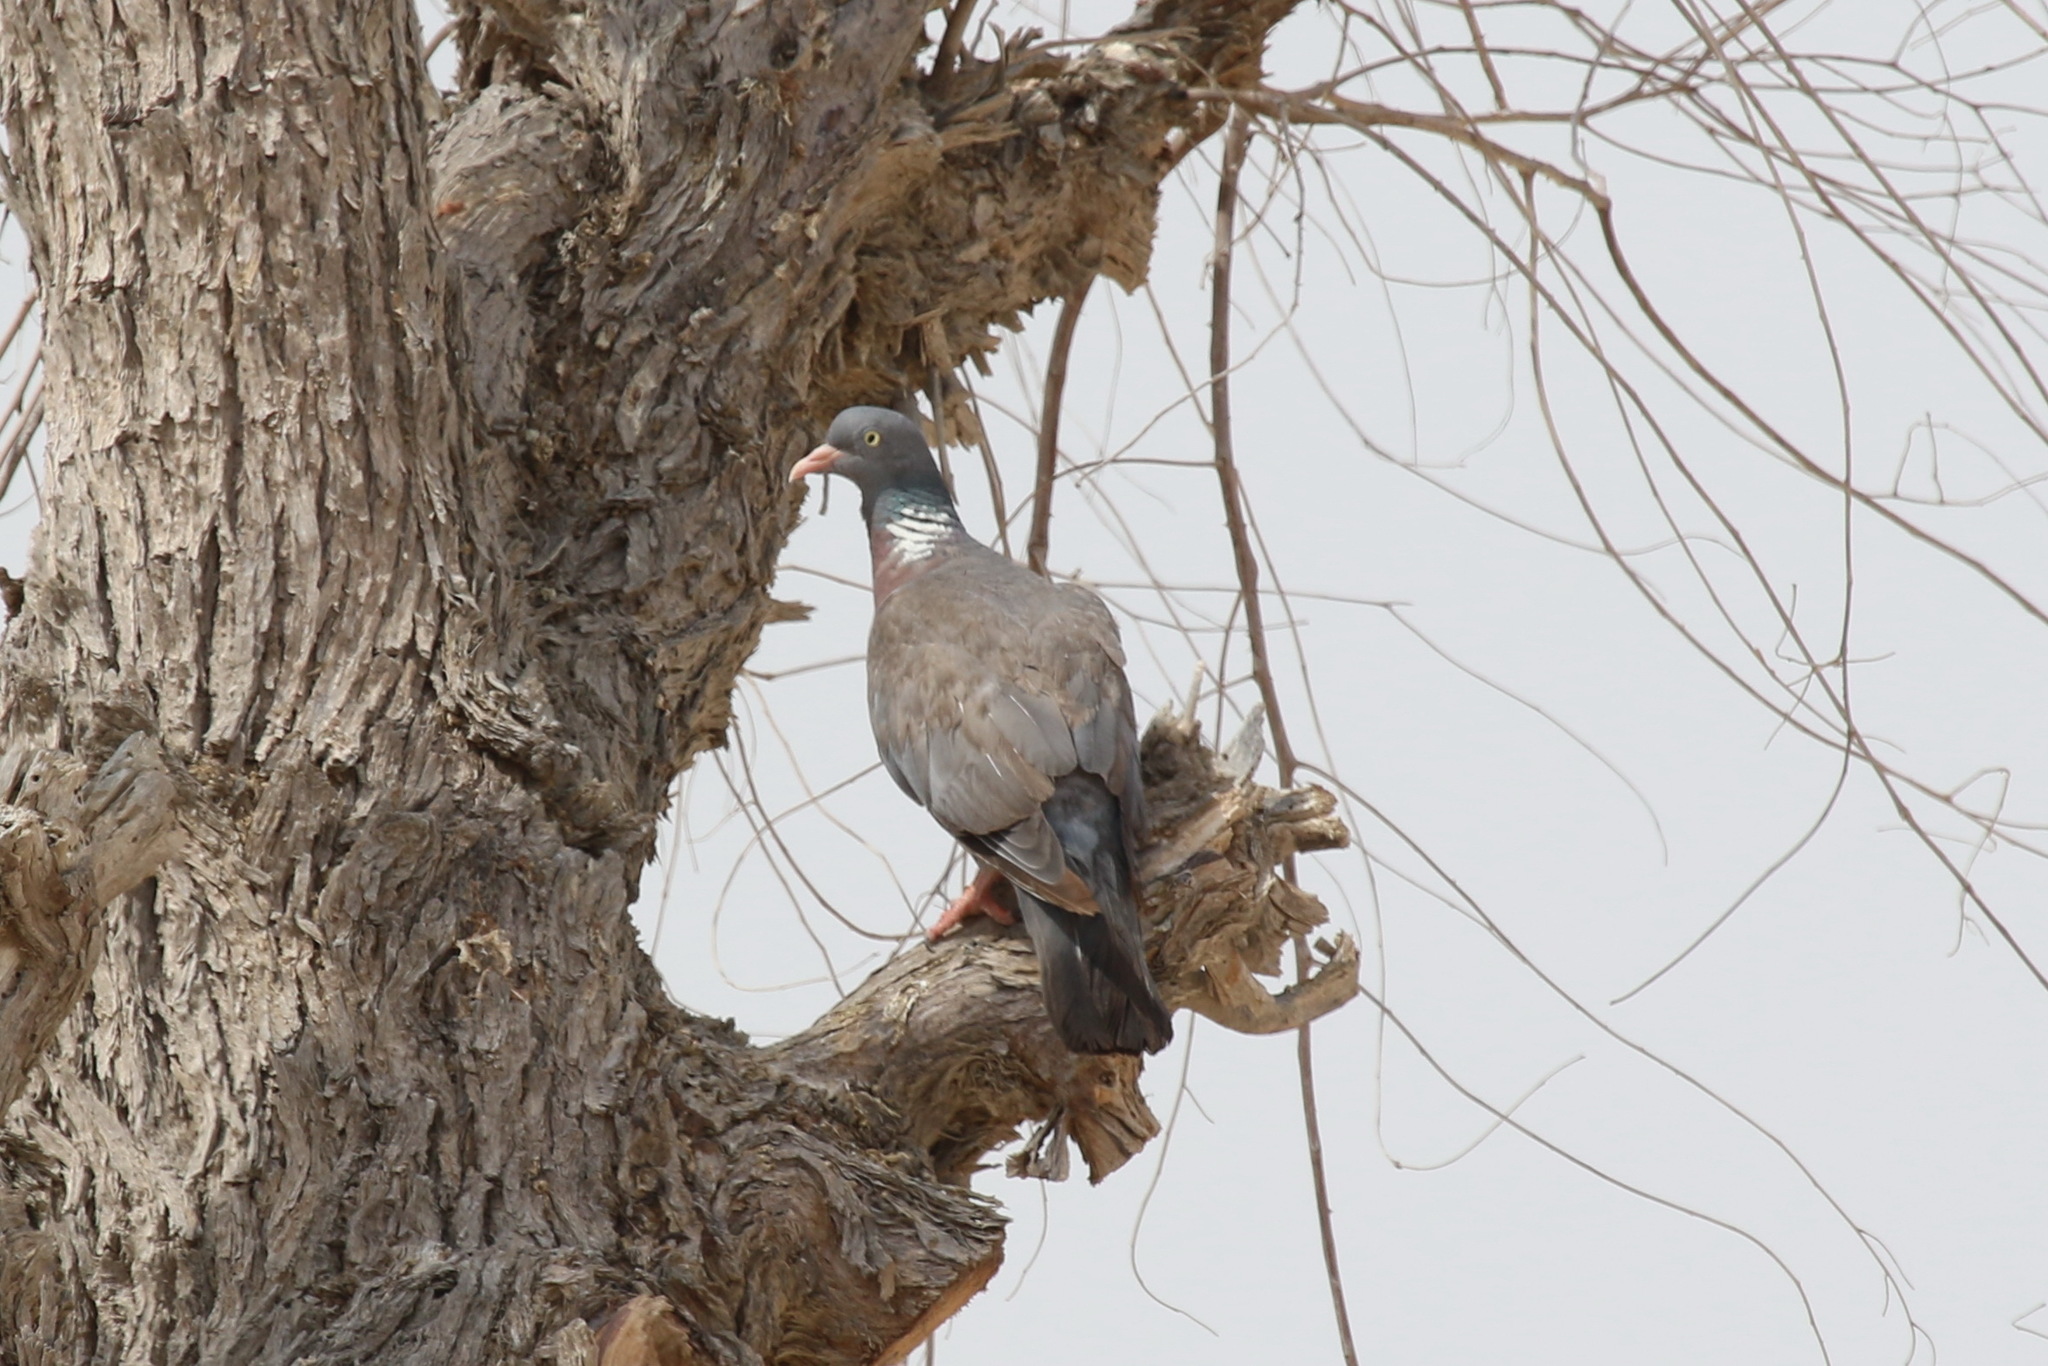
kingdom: Animalia
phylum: Chordata
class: Aves
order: Columbiformes
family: Columbidae
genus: Columba
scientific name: Columba palumbus
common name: Common wood pigeon
